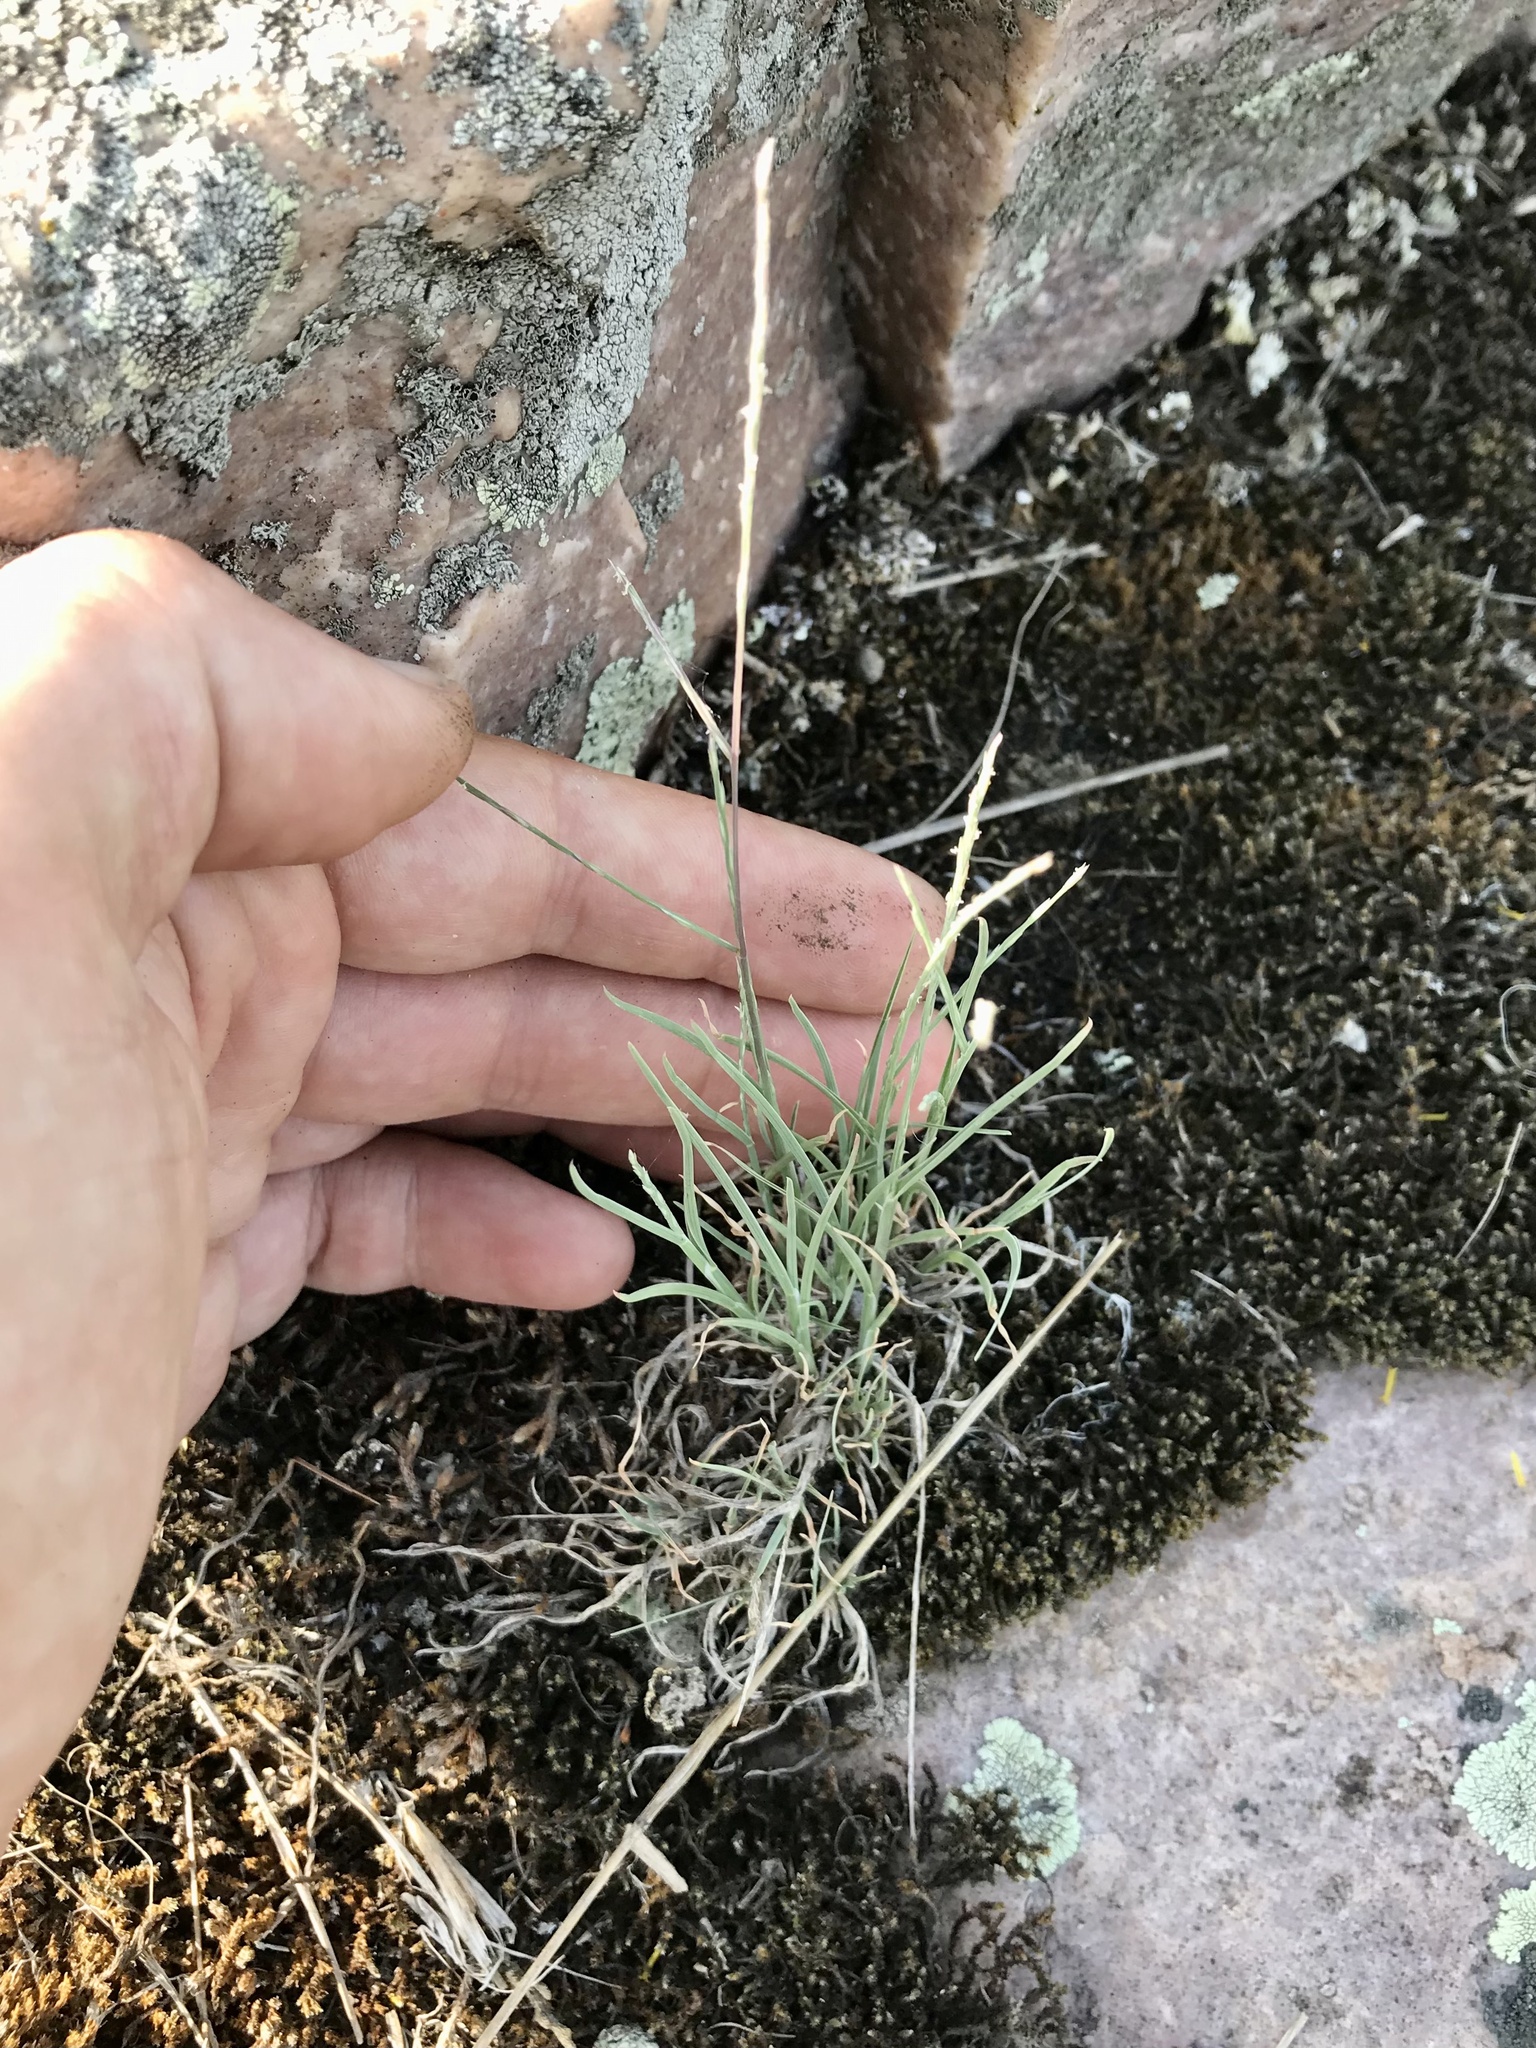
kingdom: Plantae
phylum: Tracheophyta
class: Liliopsida
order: Poales
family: Poaceae
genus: Muhlenbergia
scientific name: Muhlenbergia paniculata
